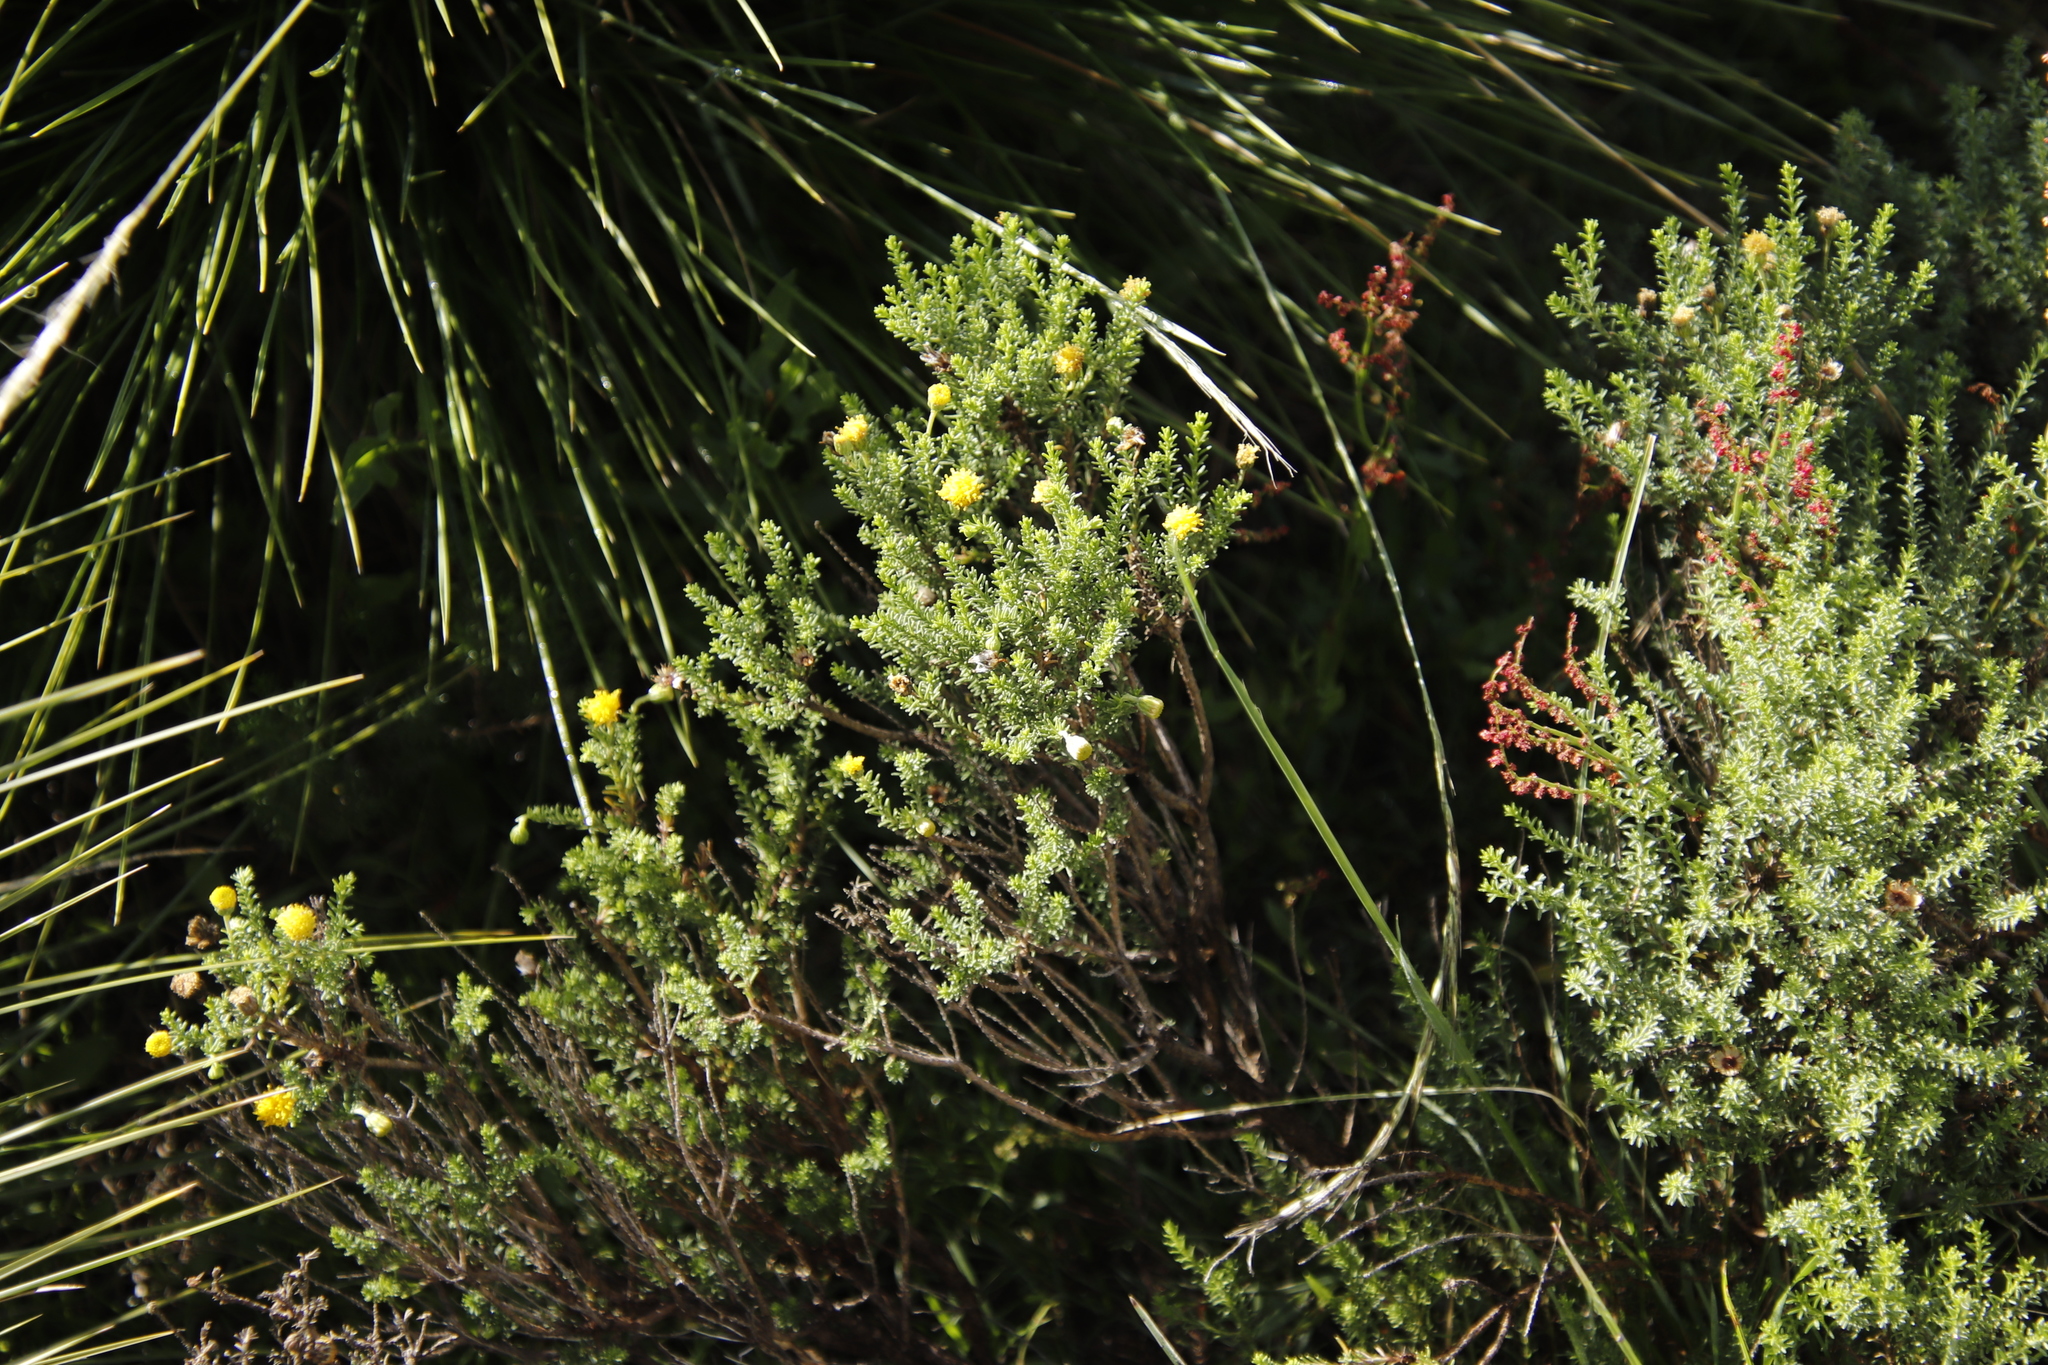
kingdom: Plantae
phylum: Tracheophyta
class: Magnoliopsida
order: Asterales
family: Asteraceae
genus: Chrysocoma
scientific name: Chrysocoma ciliata
